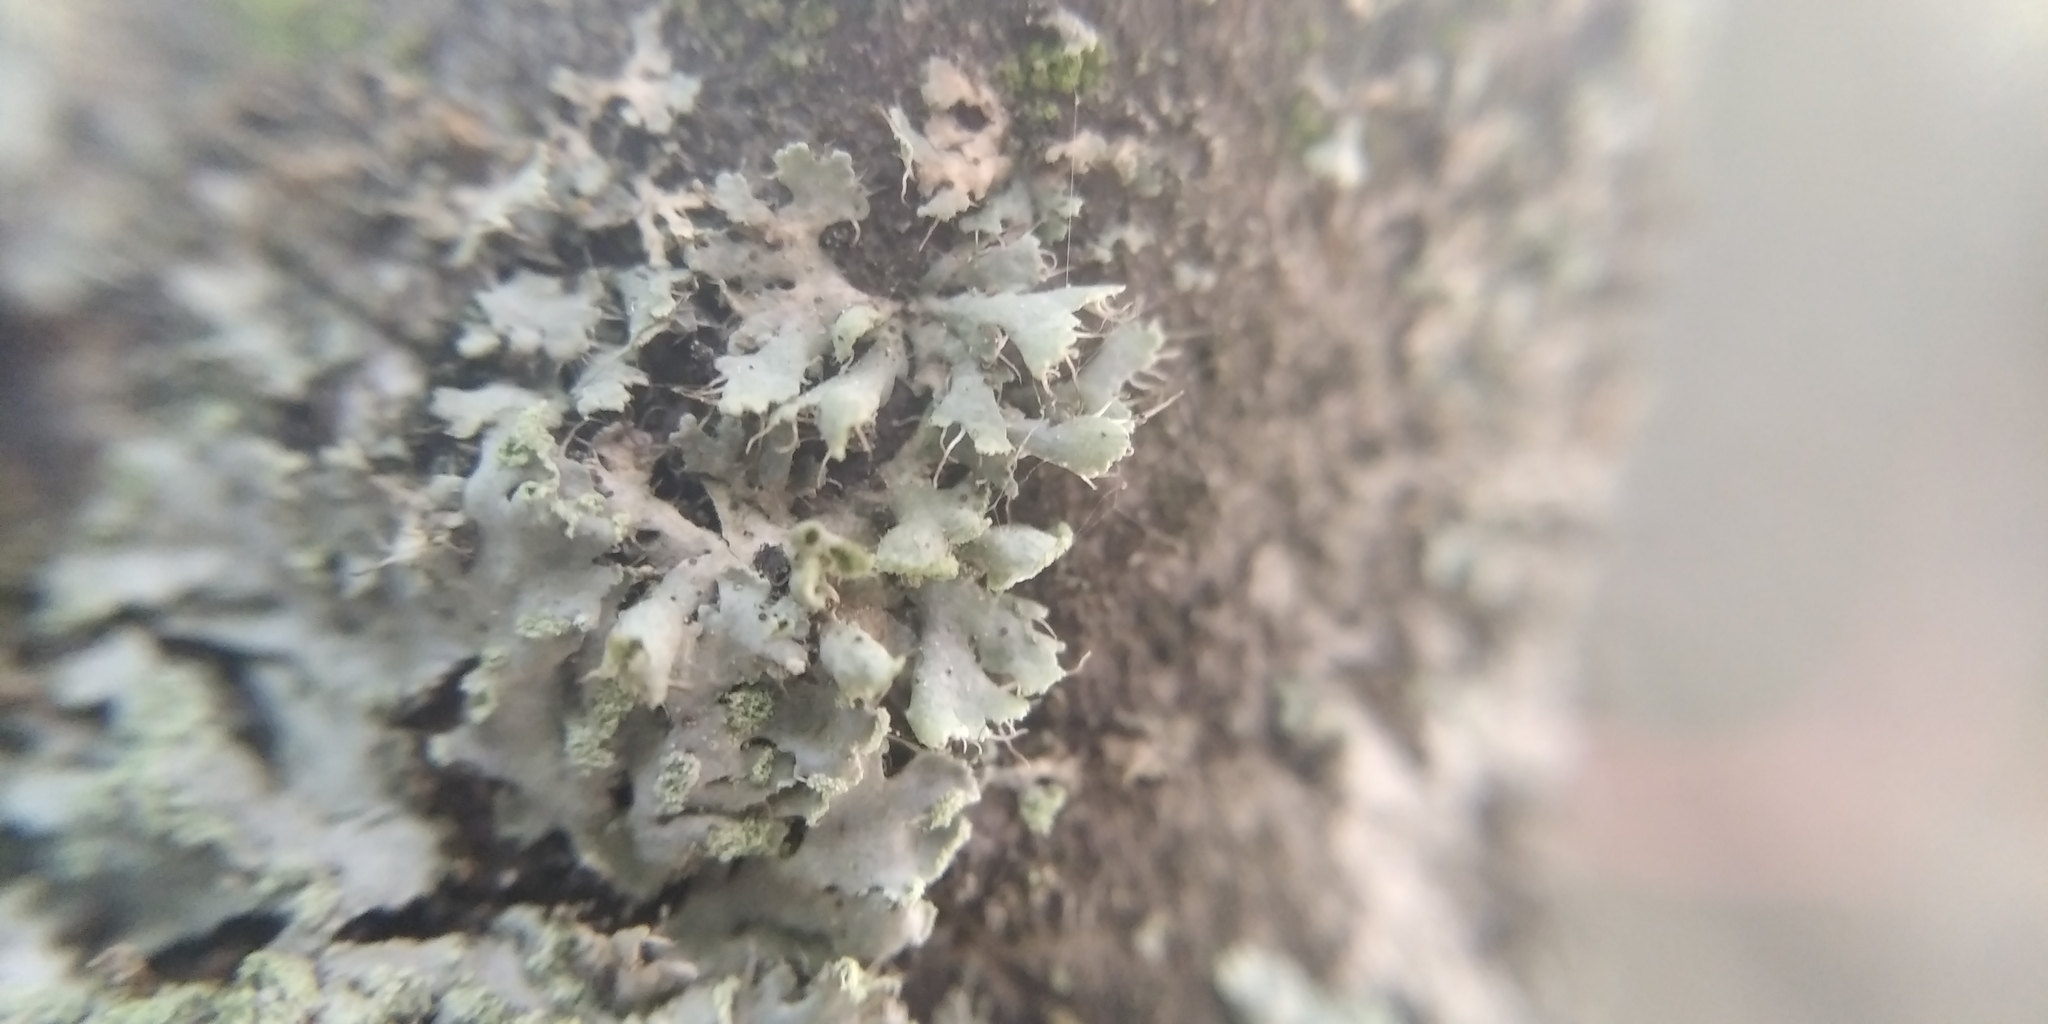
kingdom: Fungi
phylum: Ascomycota
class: Lecanoromycetes
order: Caliciales
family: Physciaceae
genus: Physcia
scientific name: Physcia tenella
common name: Fringed rosette lichen
